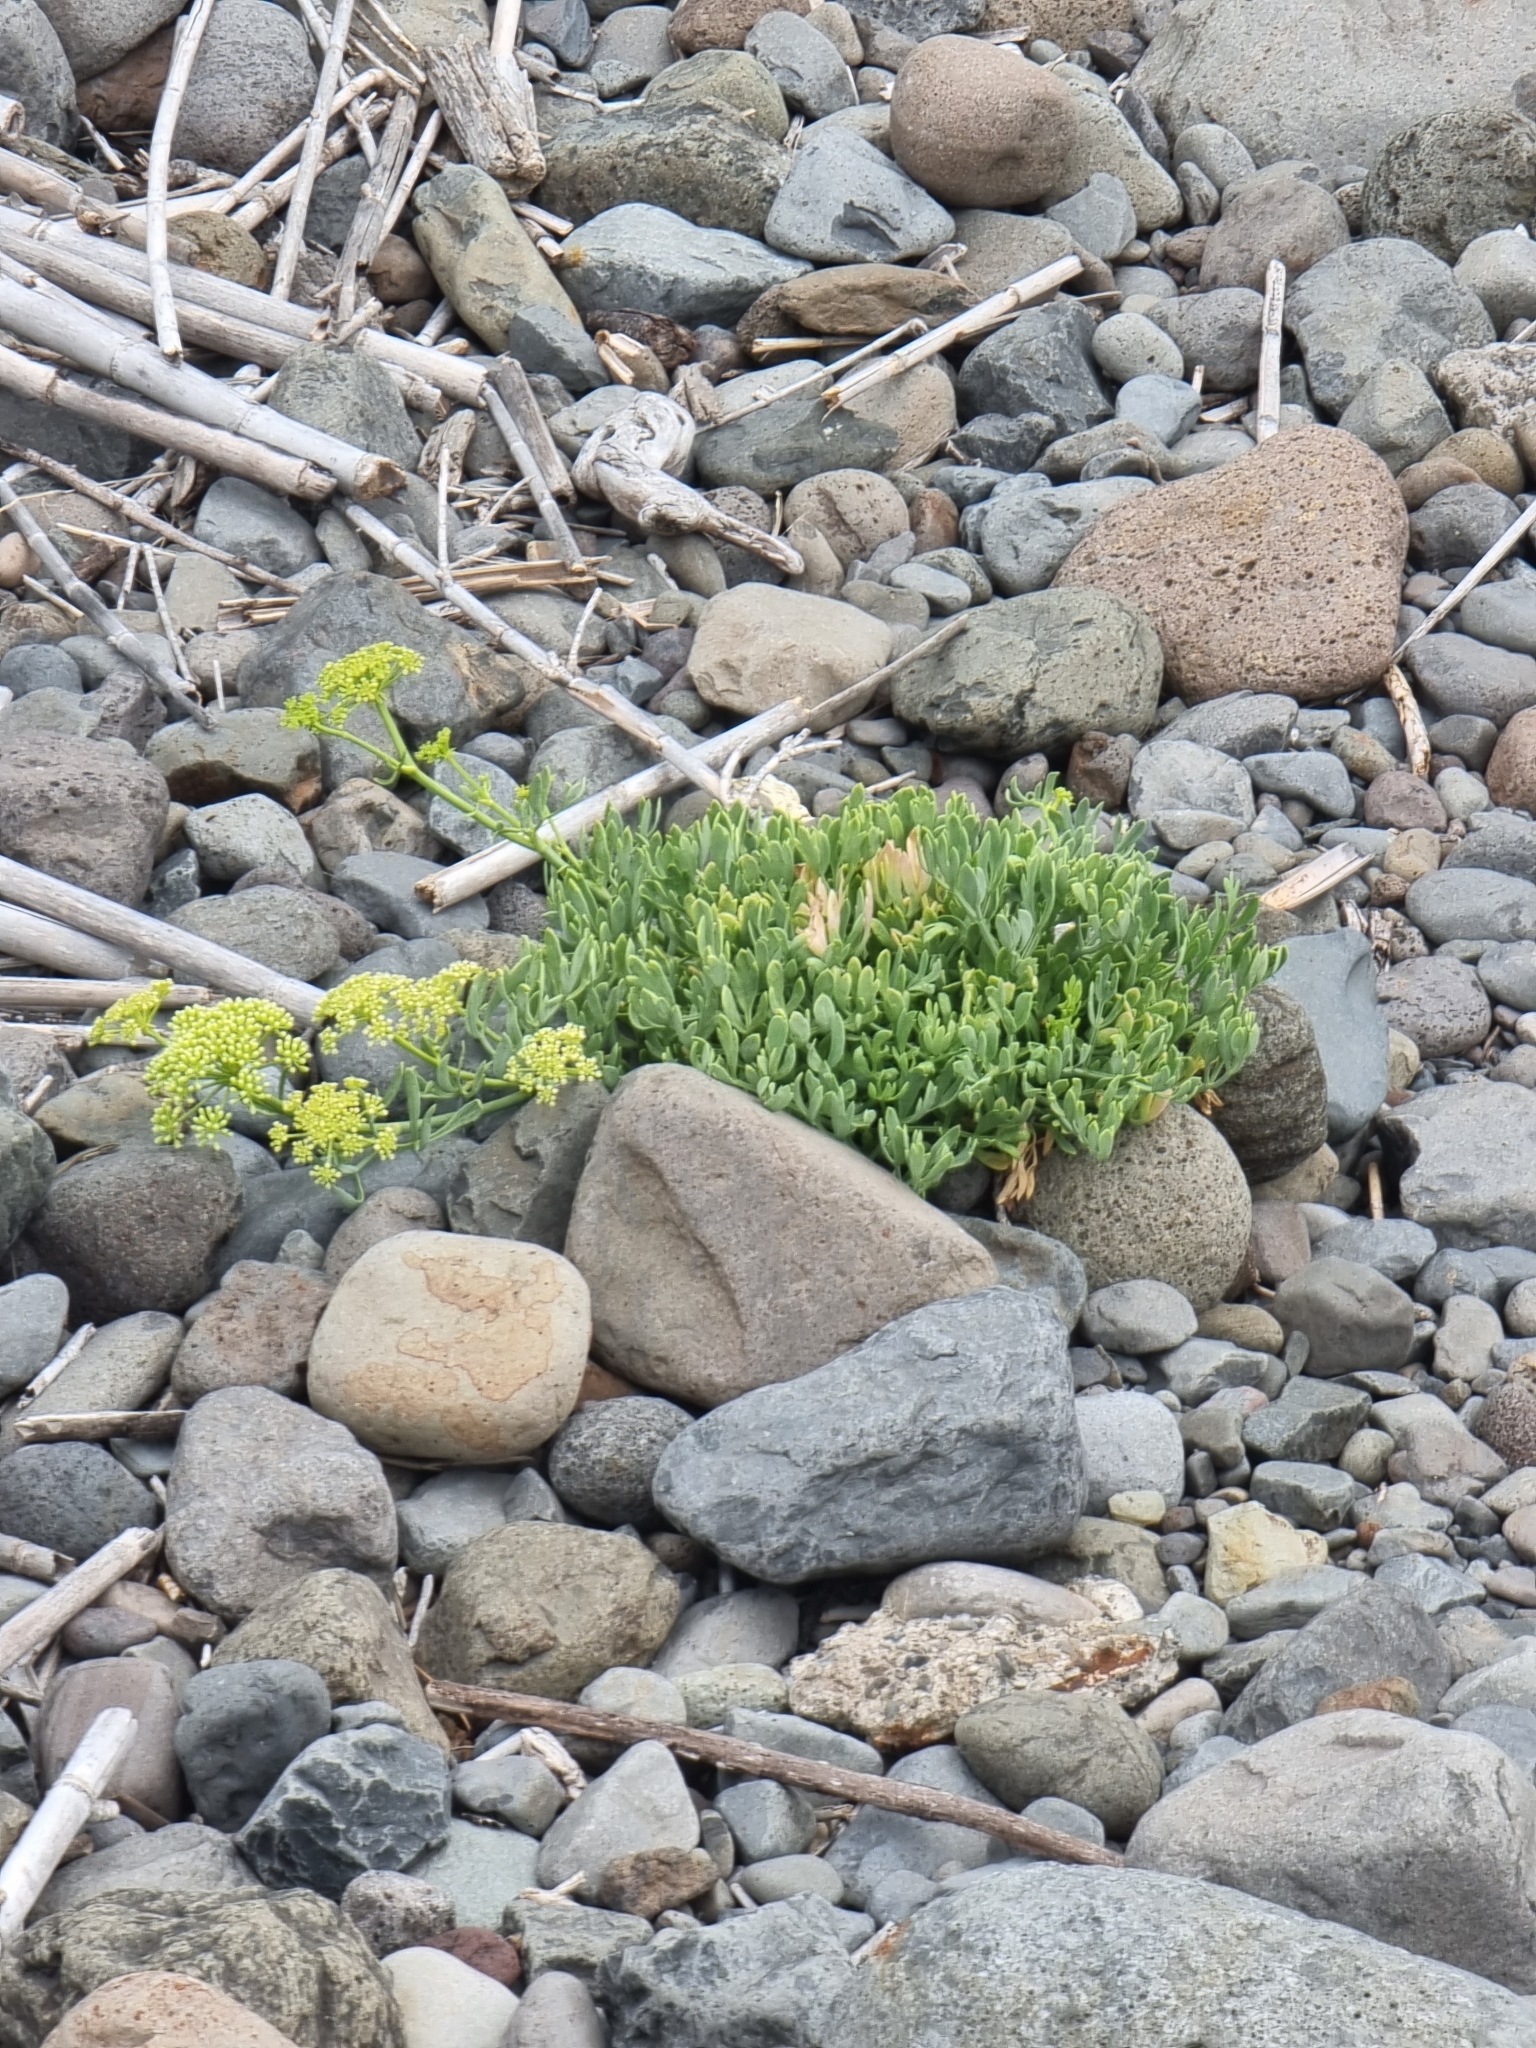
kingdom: Plantae
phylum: Tracheophyta
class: Magnoliopsida
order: Apiales
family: Apiaceae
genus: Crithmum
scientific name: Crithmum maritimum
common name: Rock samphire
